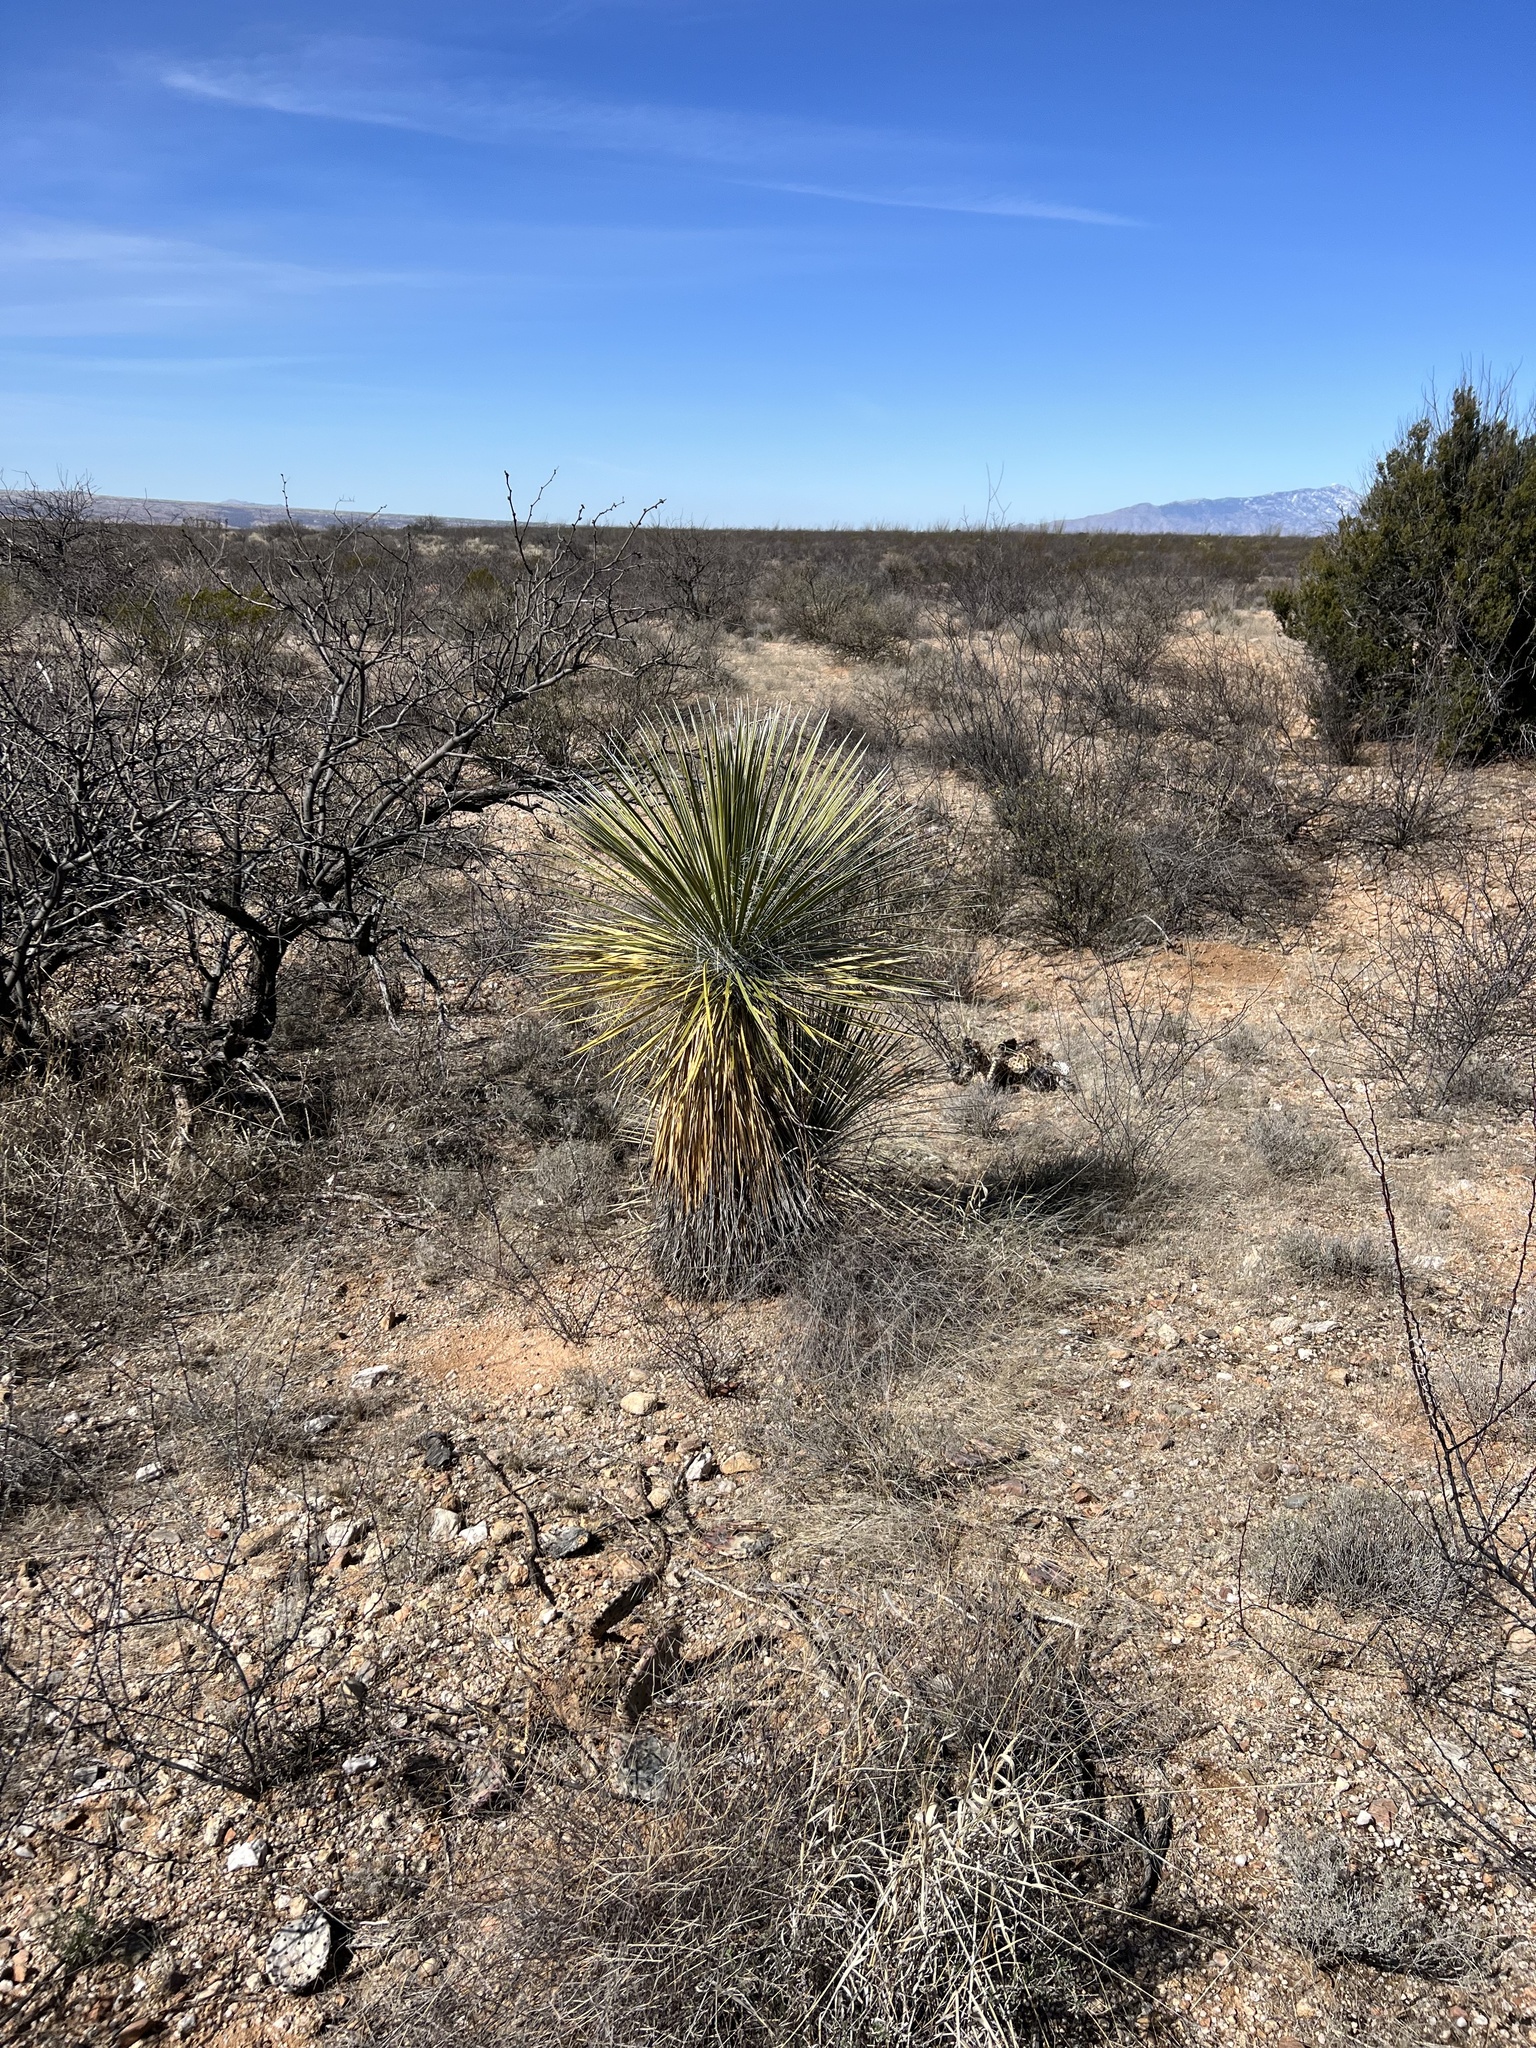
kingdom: Plantae
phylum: Tracheophyta
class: Liliopsida
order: Asparagales
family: Asparagaceae
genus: Yucca
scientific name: Yucca elata
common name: Palmella
